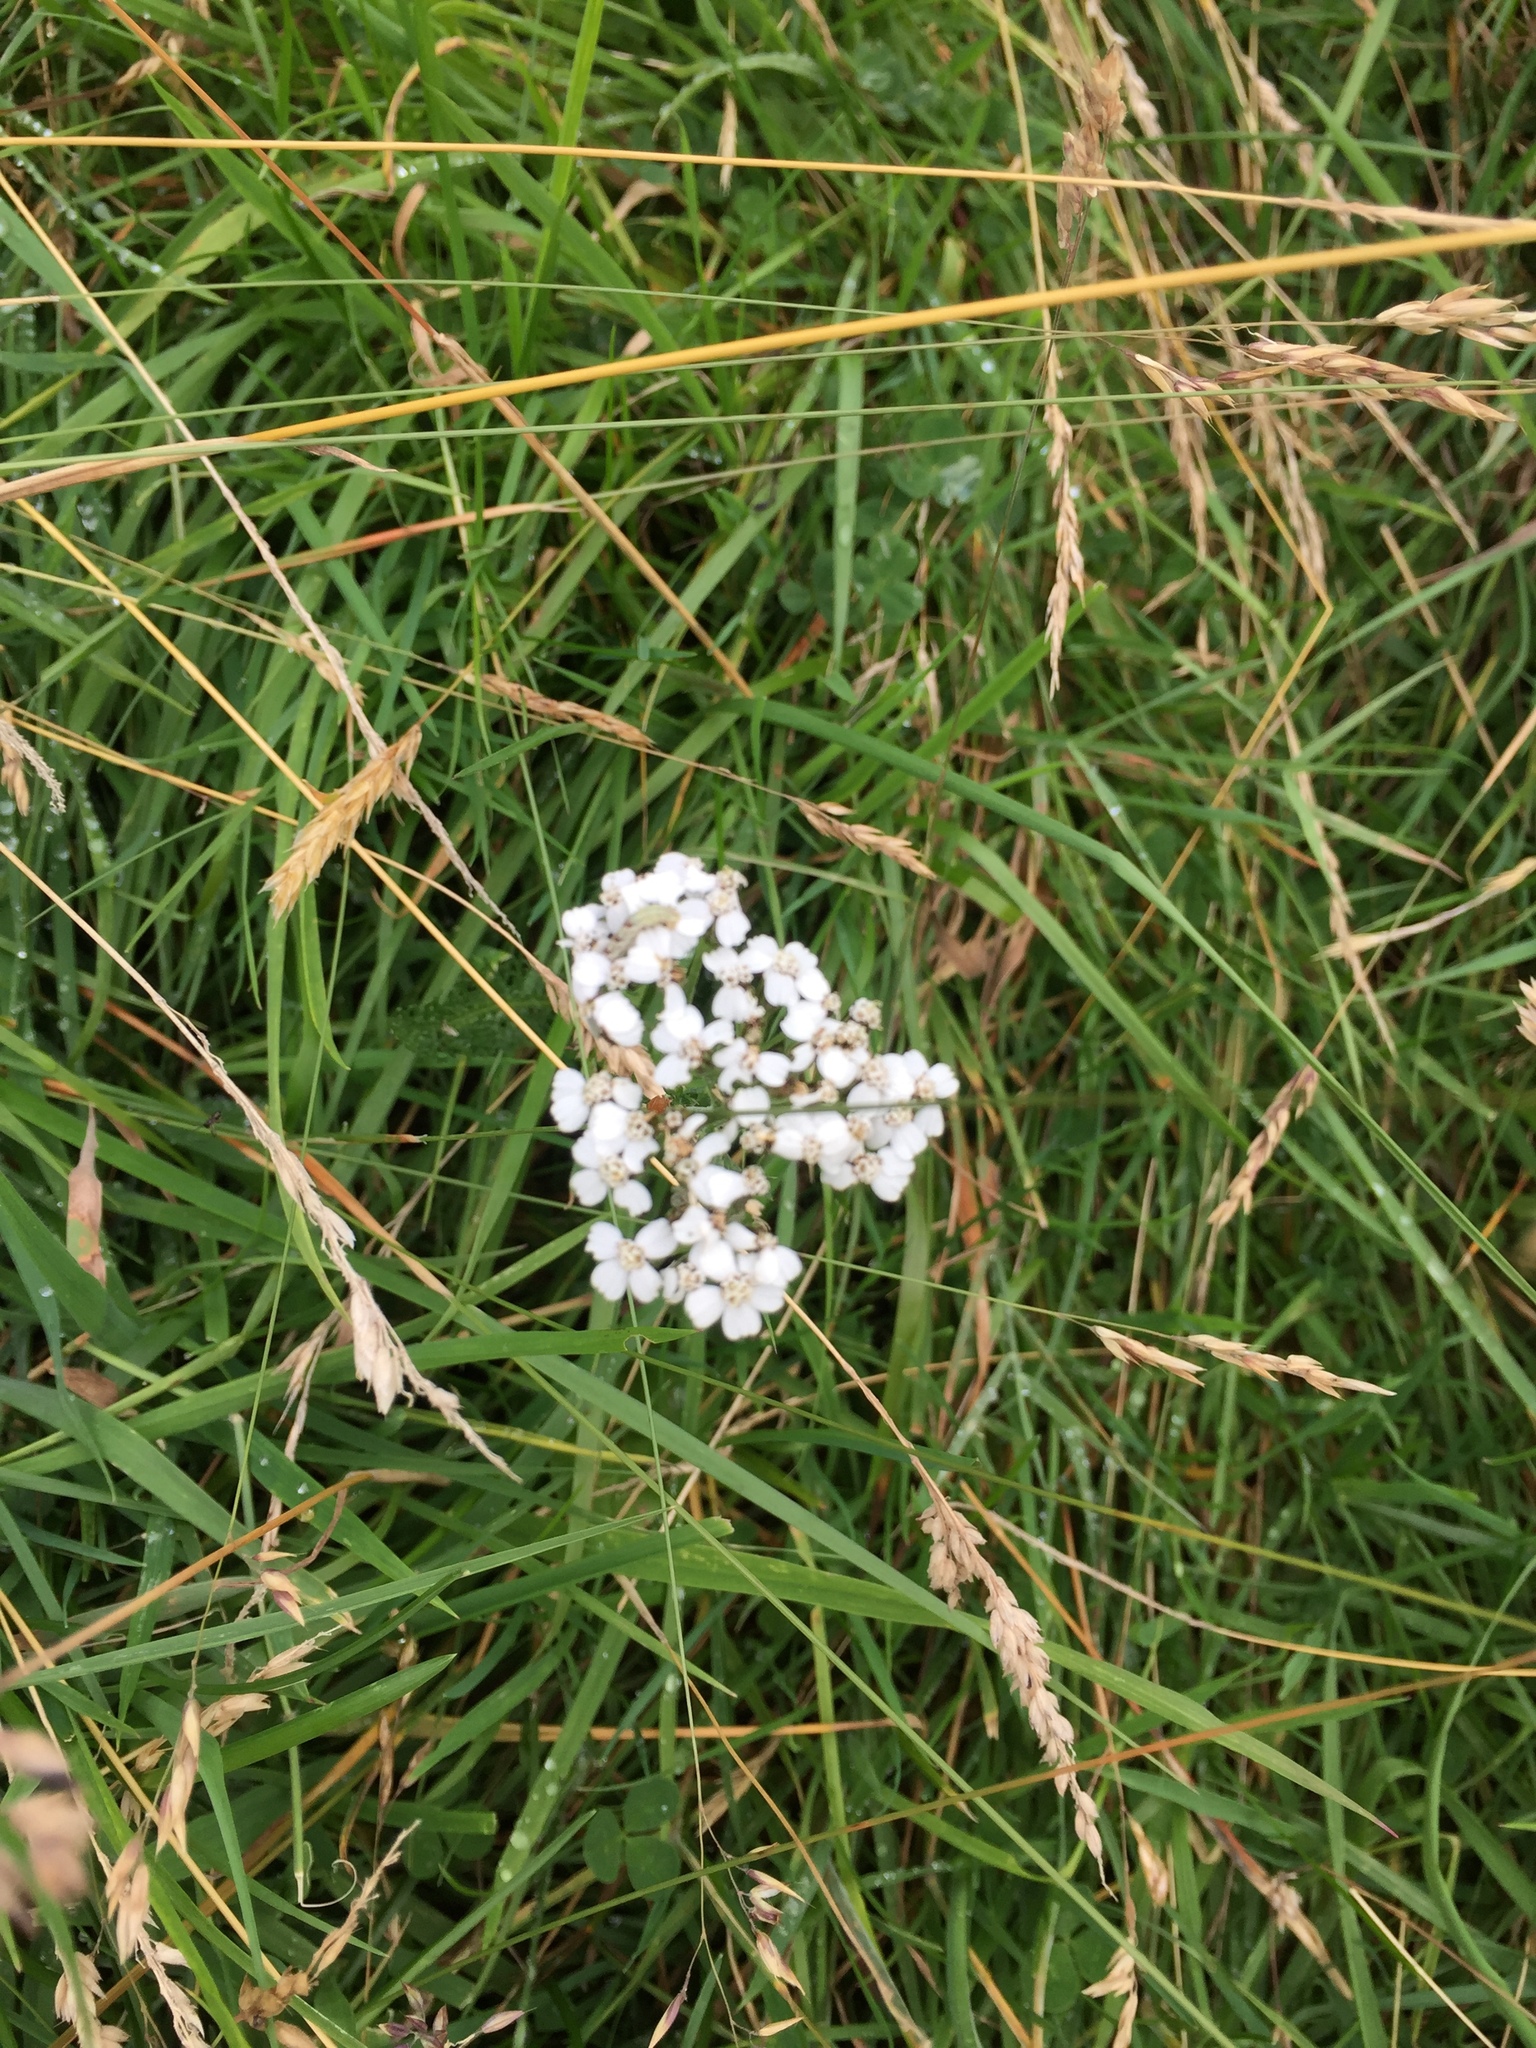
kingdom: Plantae
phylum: Tracheophyta
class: Magnoliopsida
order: Asterales
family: Asteraceae
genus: Achillea
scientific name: Achillea millefolium
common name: Yarrow
